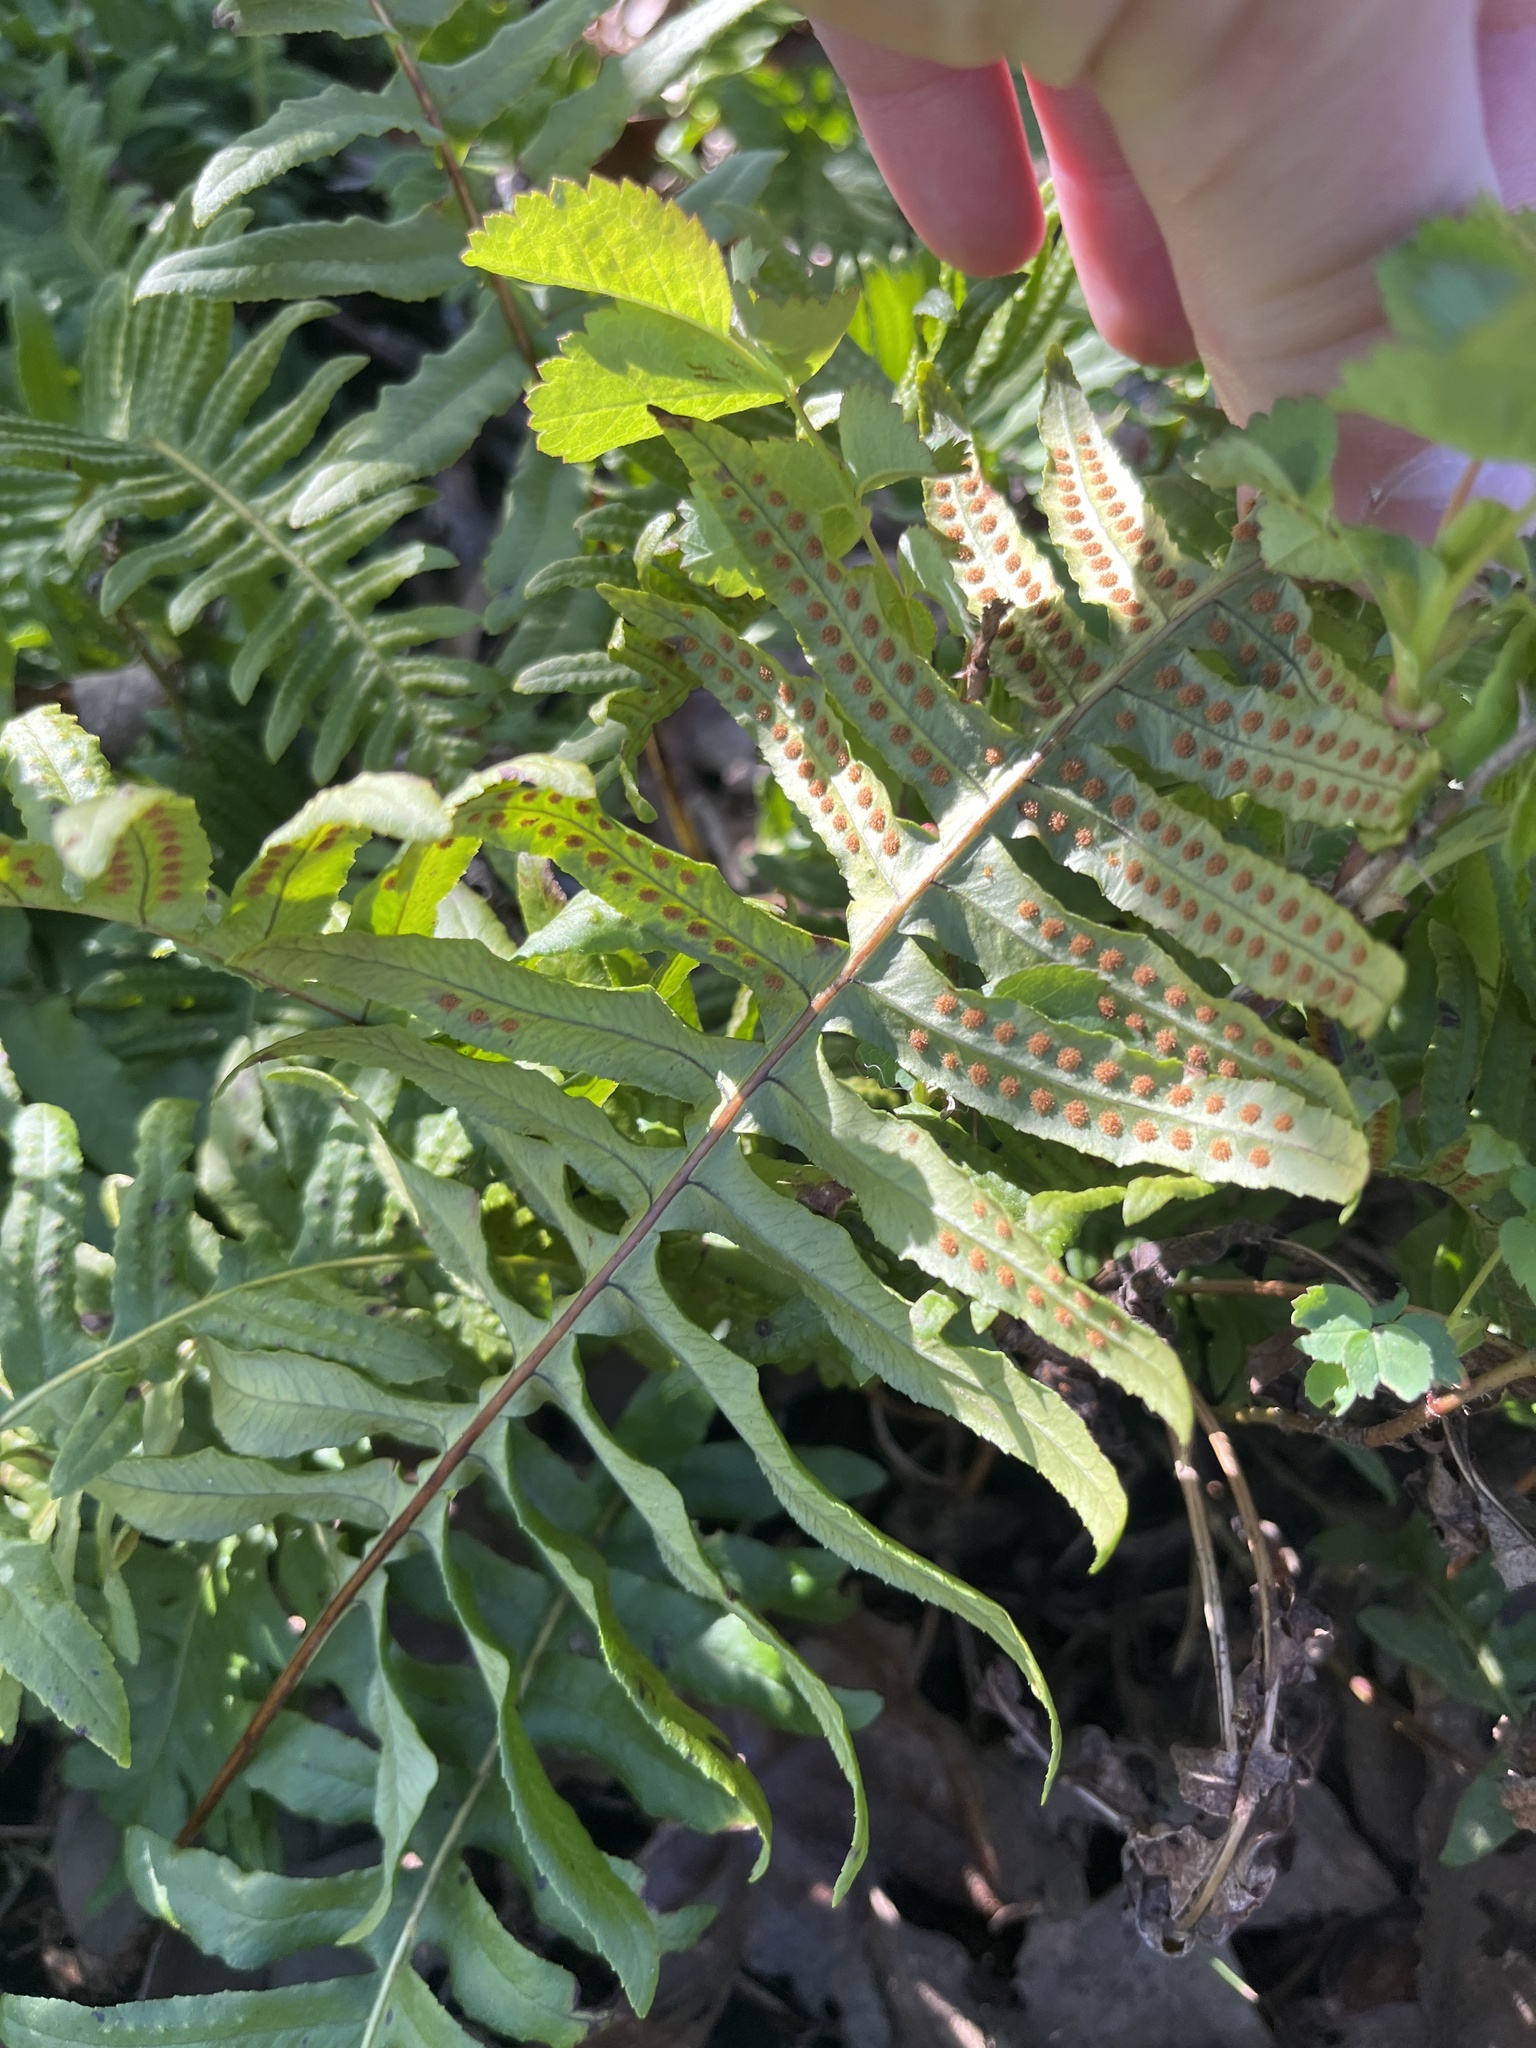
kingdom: Plantae
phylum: Tracheophyta
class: Polypodiopsida
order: Polypodiales
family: Polypodiaceae
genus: Polypodium
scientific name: Polypodium glycyrrhiza
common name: Licorice fern
